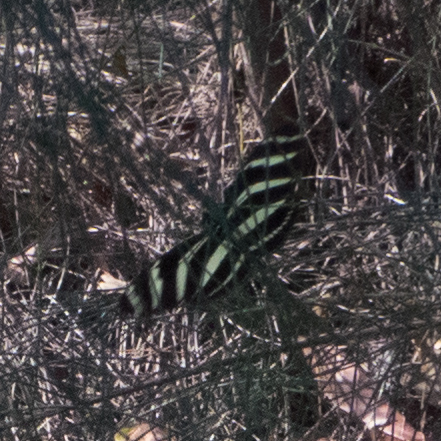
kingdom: Animalia
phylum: Arthropoda
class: Insecta
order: Lepidoptera
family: Nymphalidae
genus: Heliconius
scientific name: Heliconius charithonia
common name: Zebra long wing
